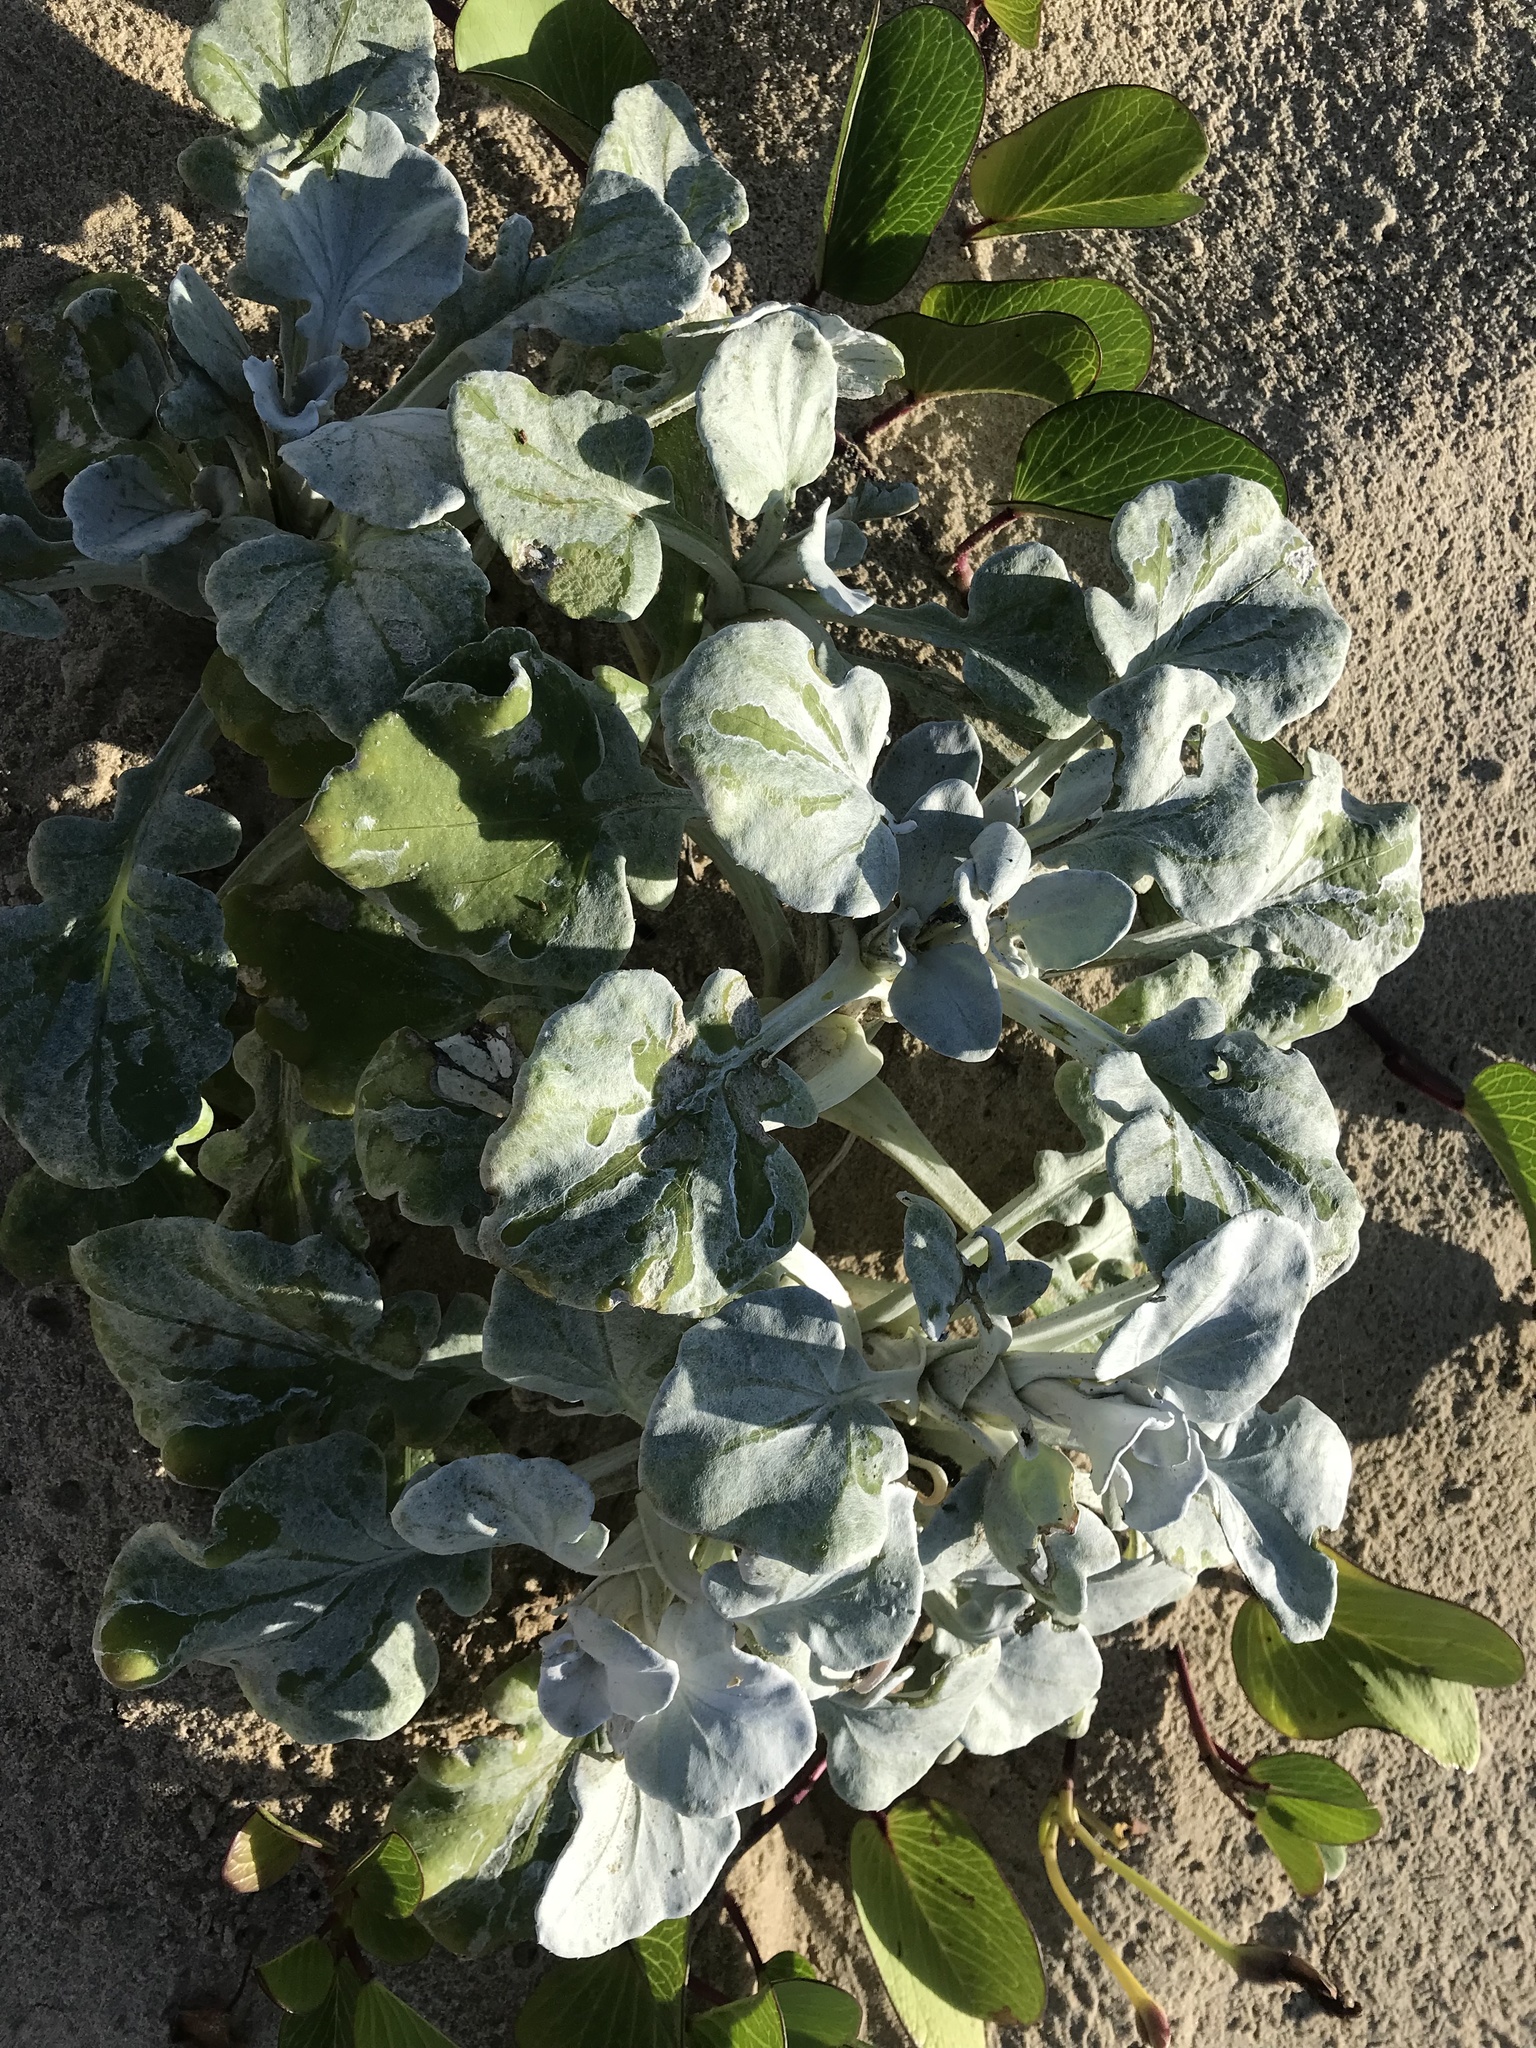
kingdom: Plantae
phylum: Tracheophyta
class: Magnoliopsida
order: Asterales
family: Asteraceae
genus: Arctotheca
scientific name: Arctotheca populifolia
